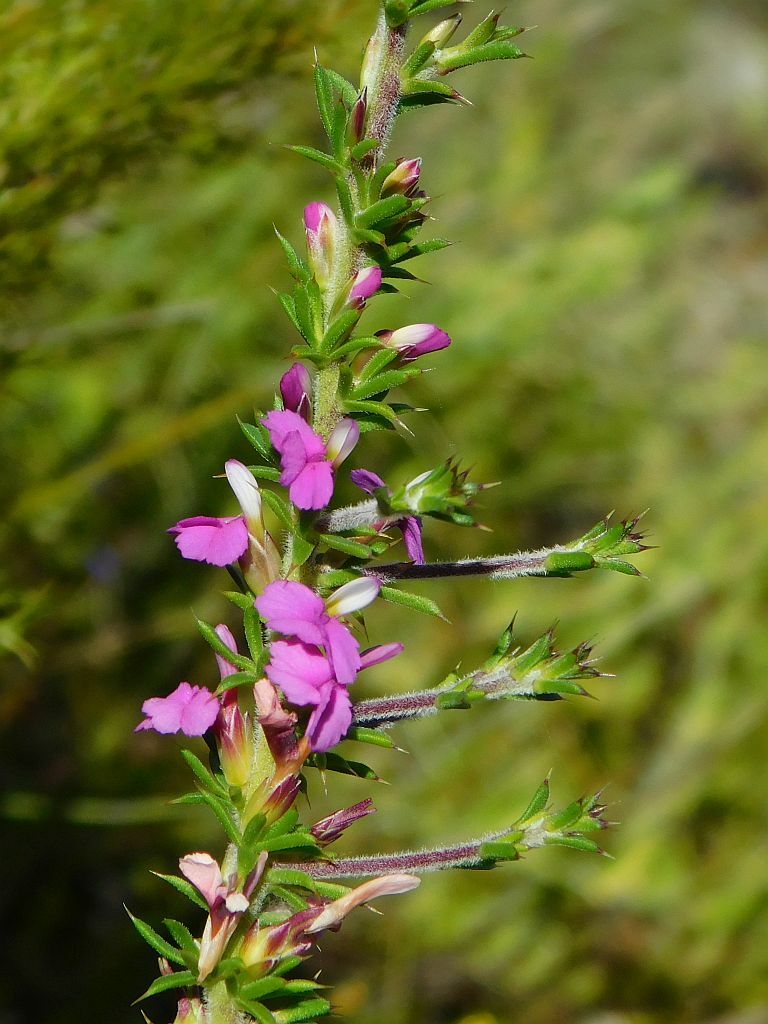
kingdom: Plantae
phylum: Tracheophyta
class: Magnoliopsida
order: Fabales
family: Polygalaceae
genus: Muraltia
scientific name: Muraltia heisteria
